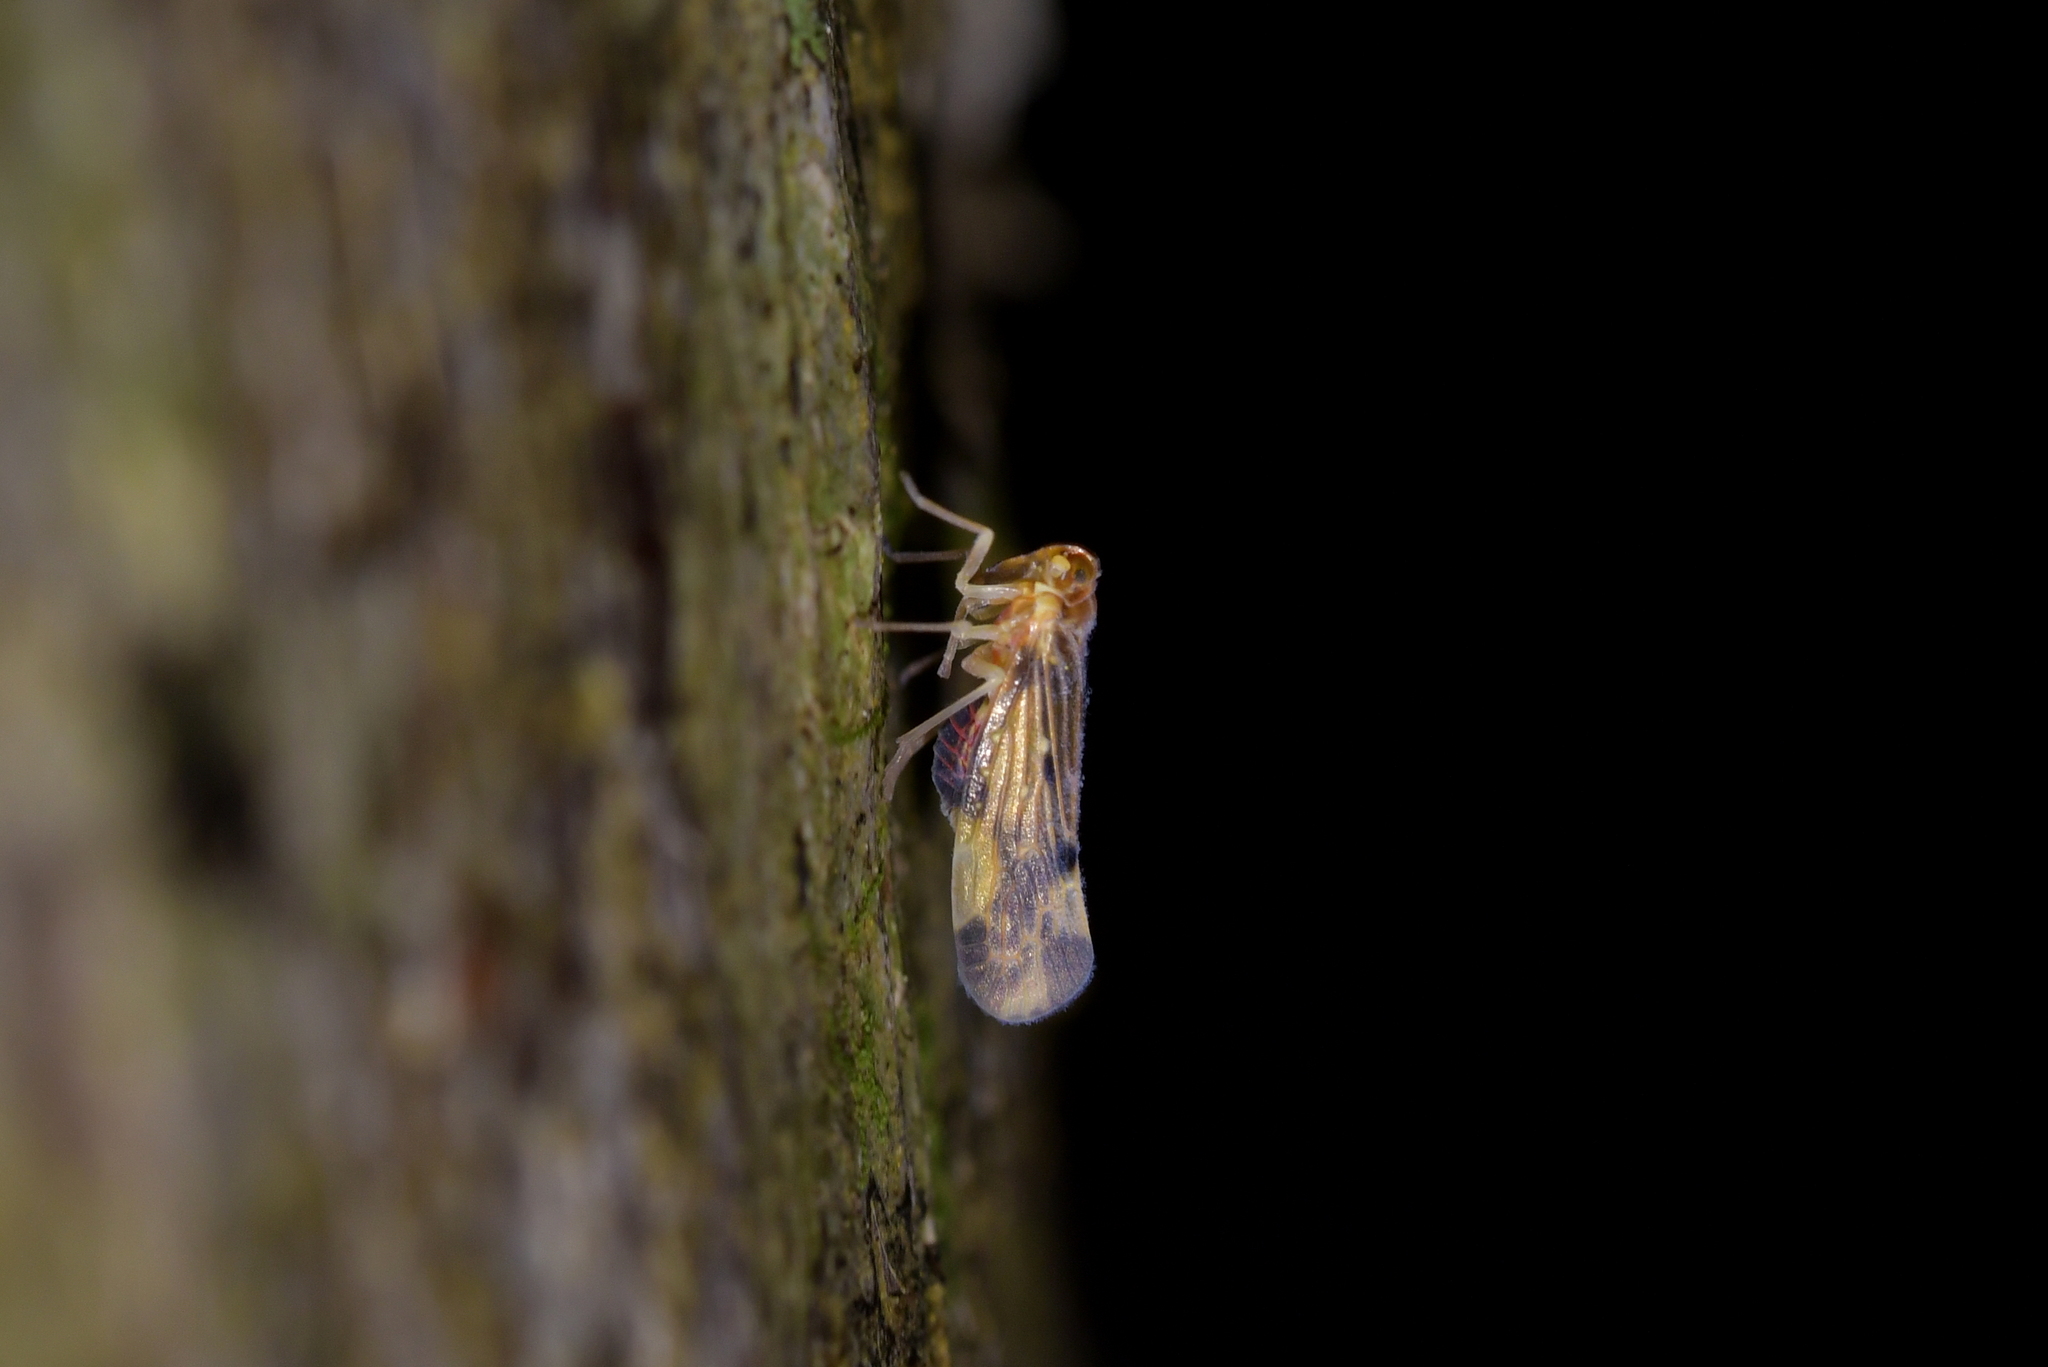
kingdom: Animalia
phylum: Arthropoda
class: Insecta
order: Hemiptera
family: Derbidae
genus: Eocenchrea
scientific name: Eocenchrea maorica
